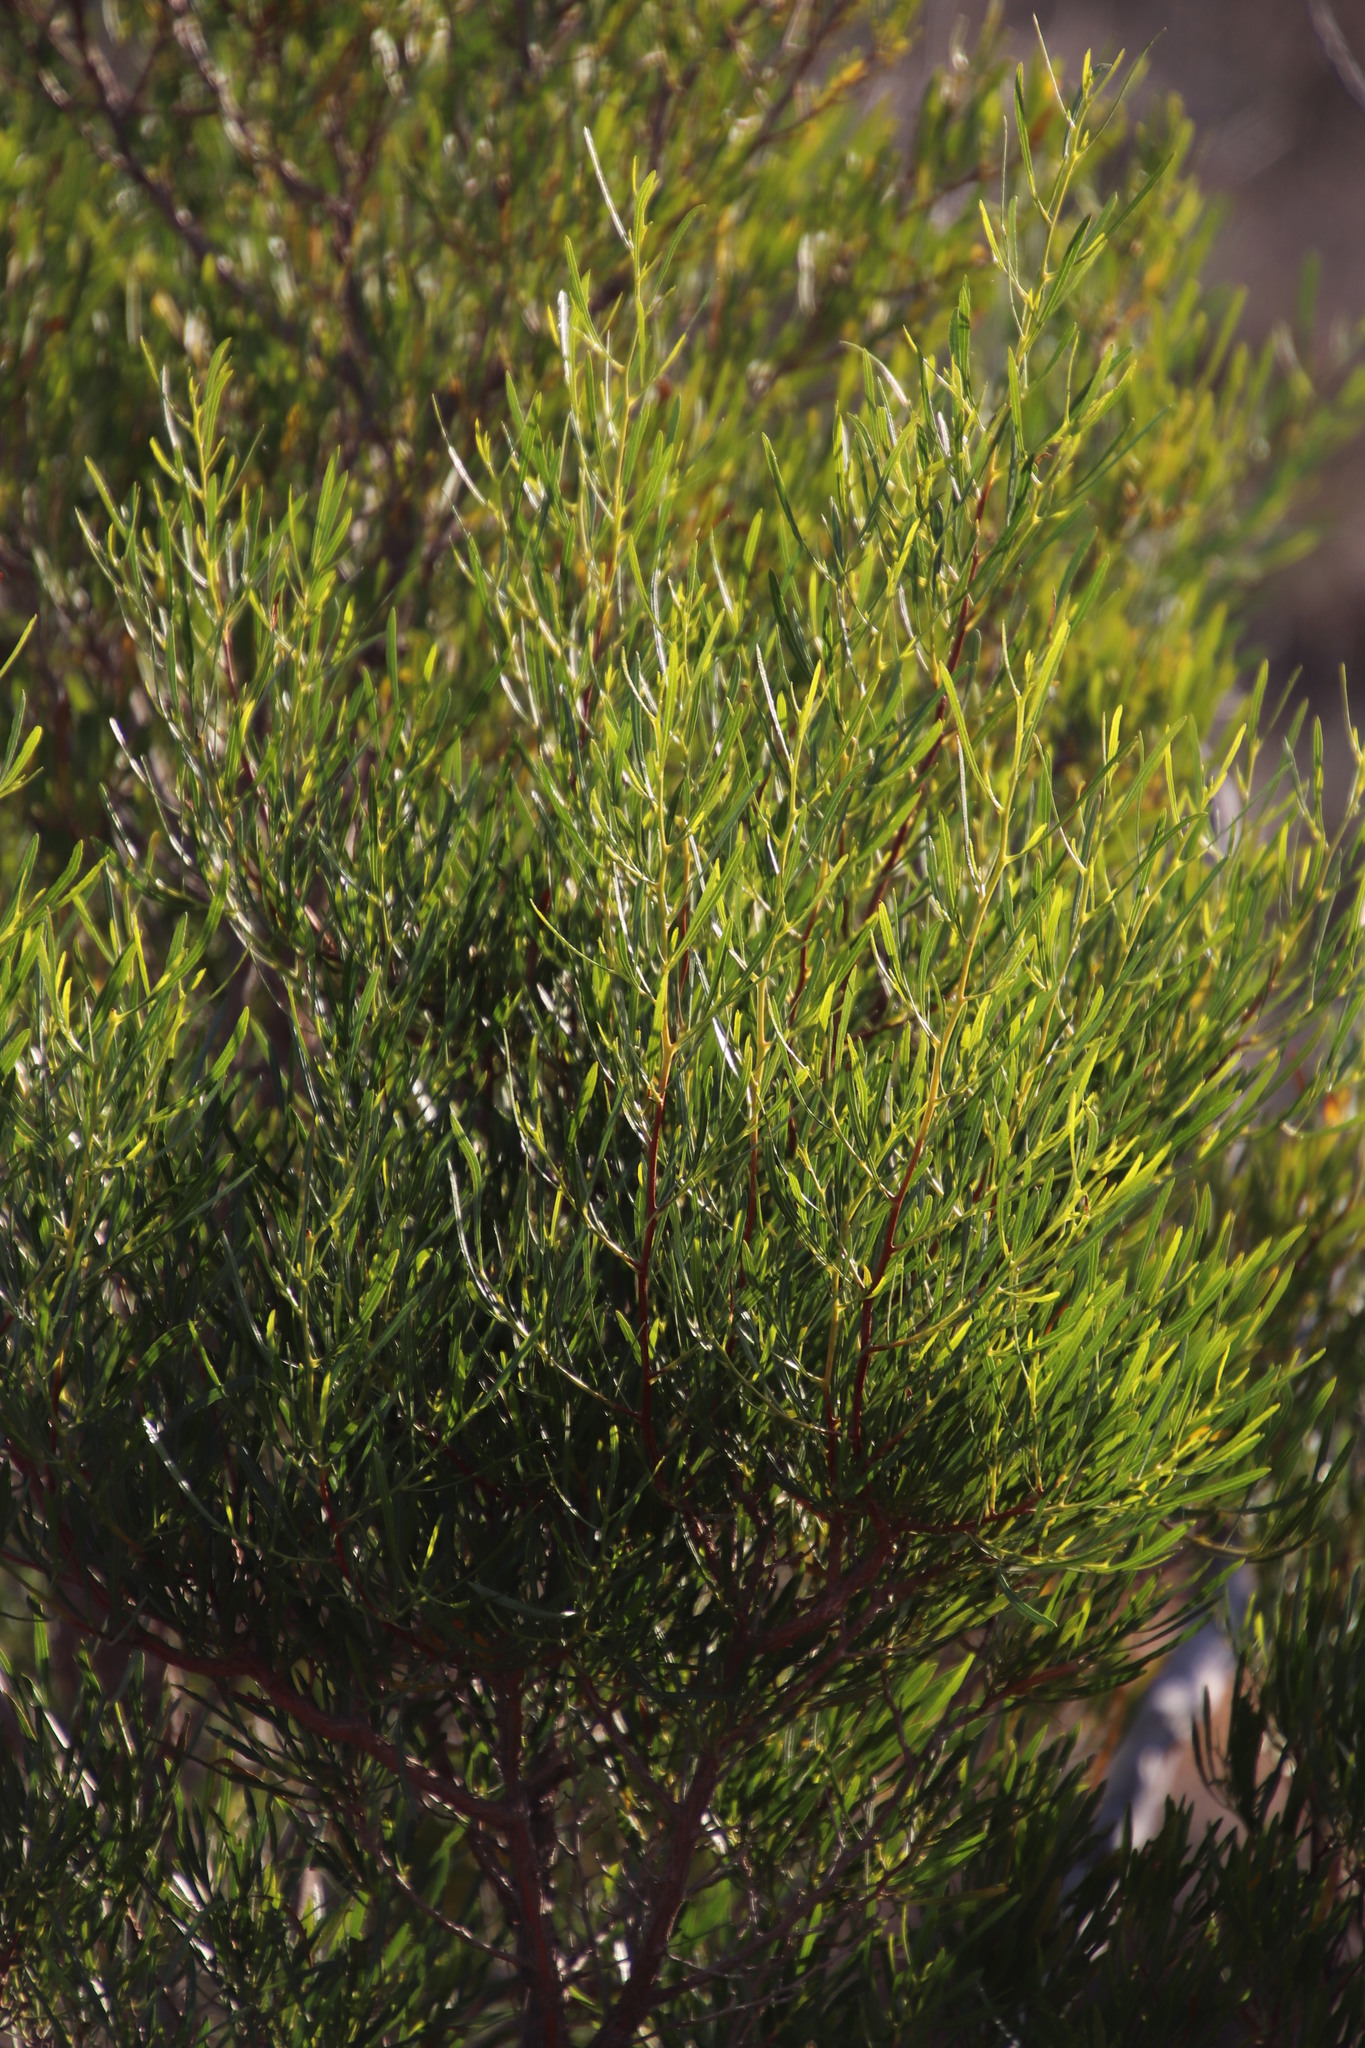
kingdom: Plantae
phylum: Tracheophyta
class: Magnoliopsida
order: Sapindales
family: Sapindaceae
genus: Dodonaea
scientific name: Dodonaea viscosa
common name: Hopbush
